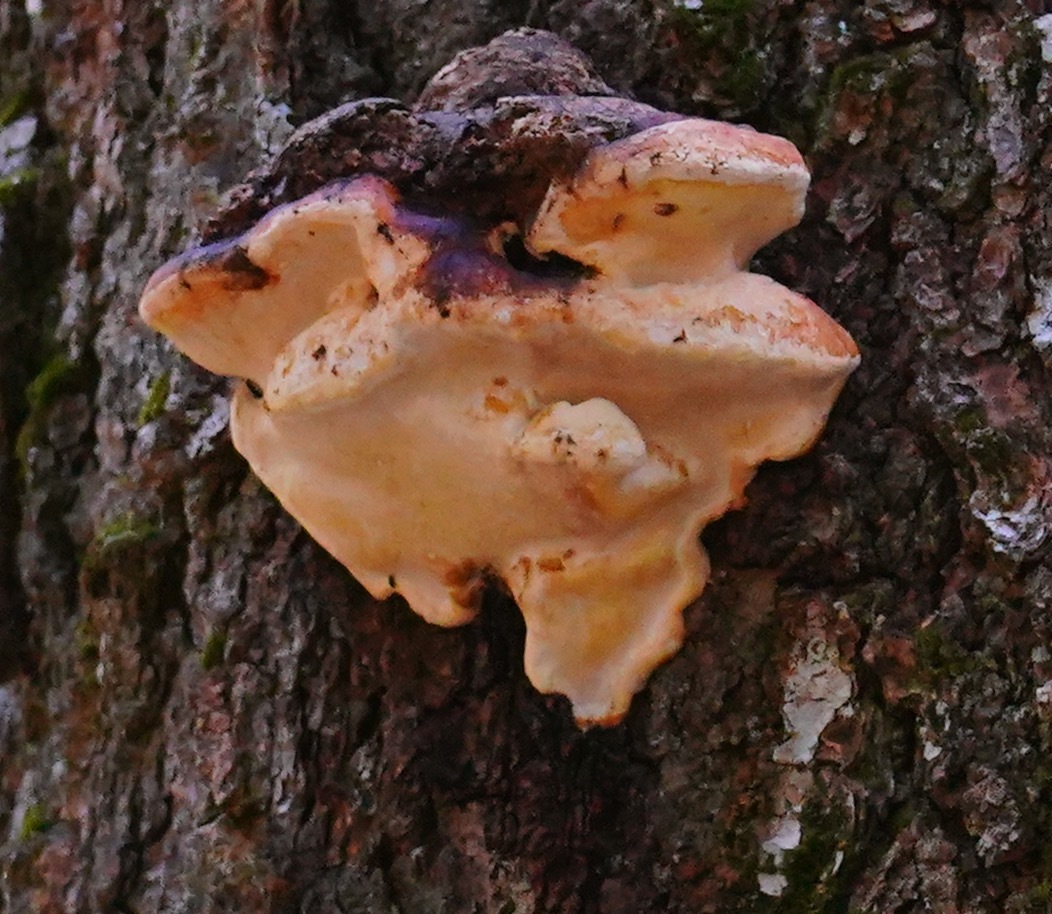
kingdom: Fungi
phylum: Basidiomycota
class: Agaricomycetes
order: Polyporales
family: Fomitopsidaceae
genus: Fomitopsis
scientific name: Fomitopsis mounceae
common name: Northern red belt
